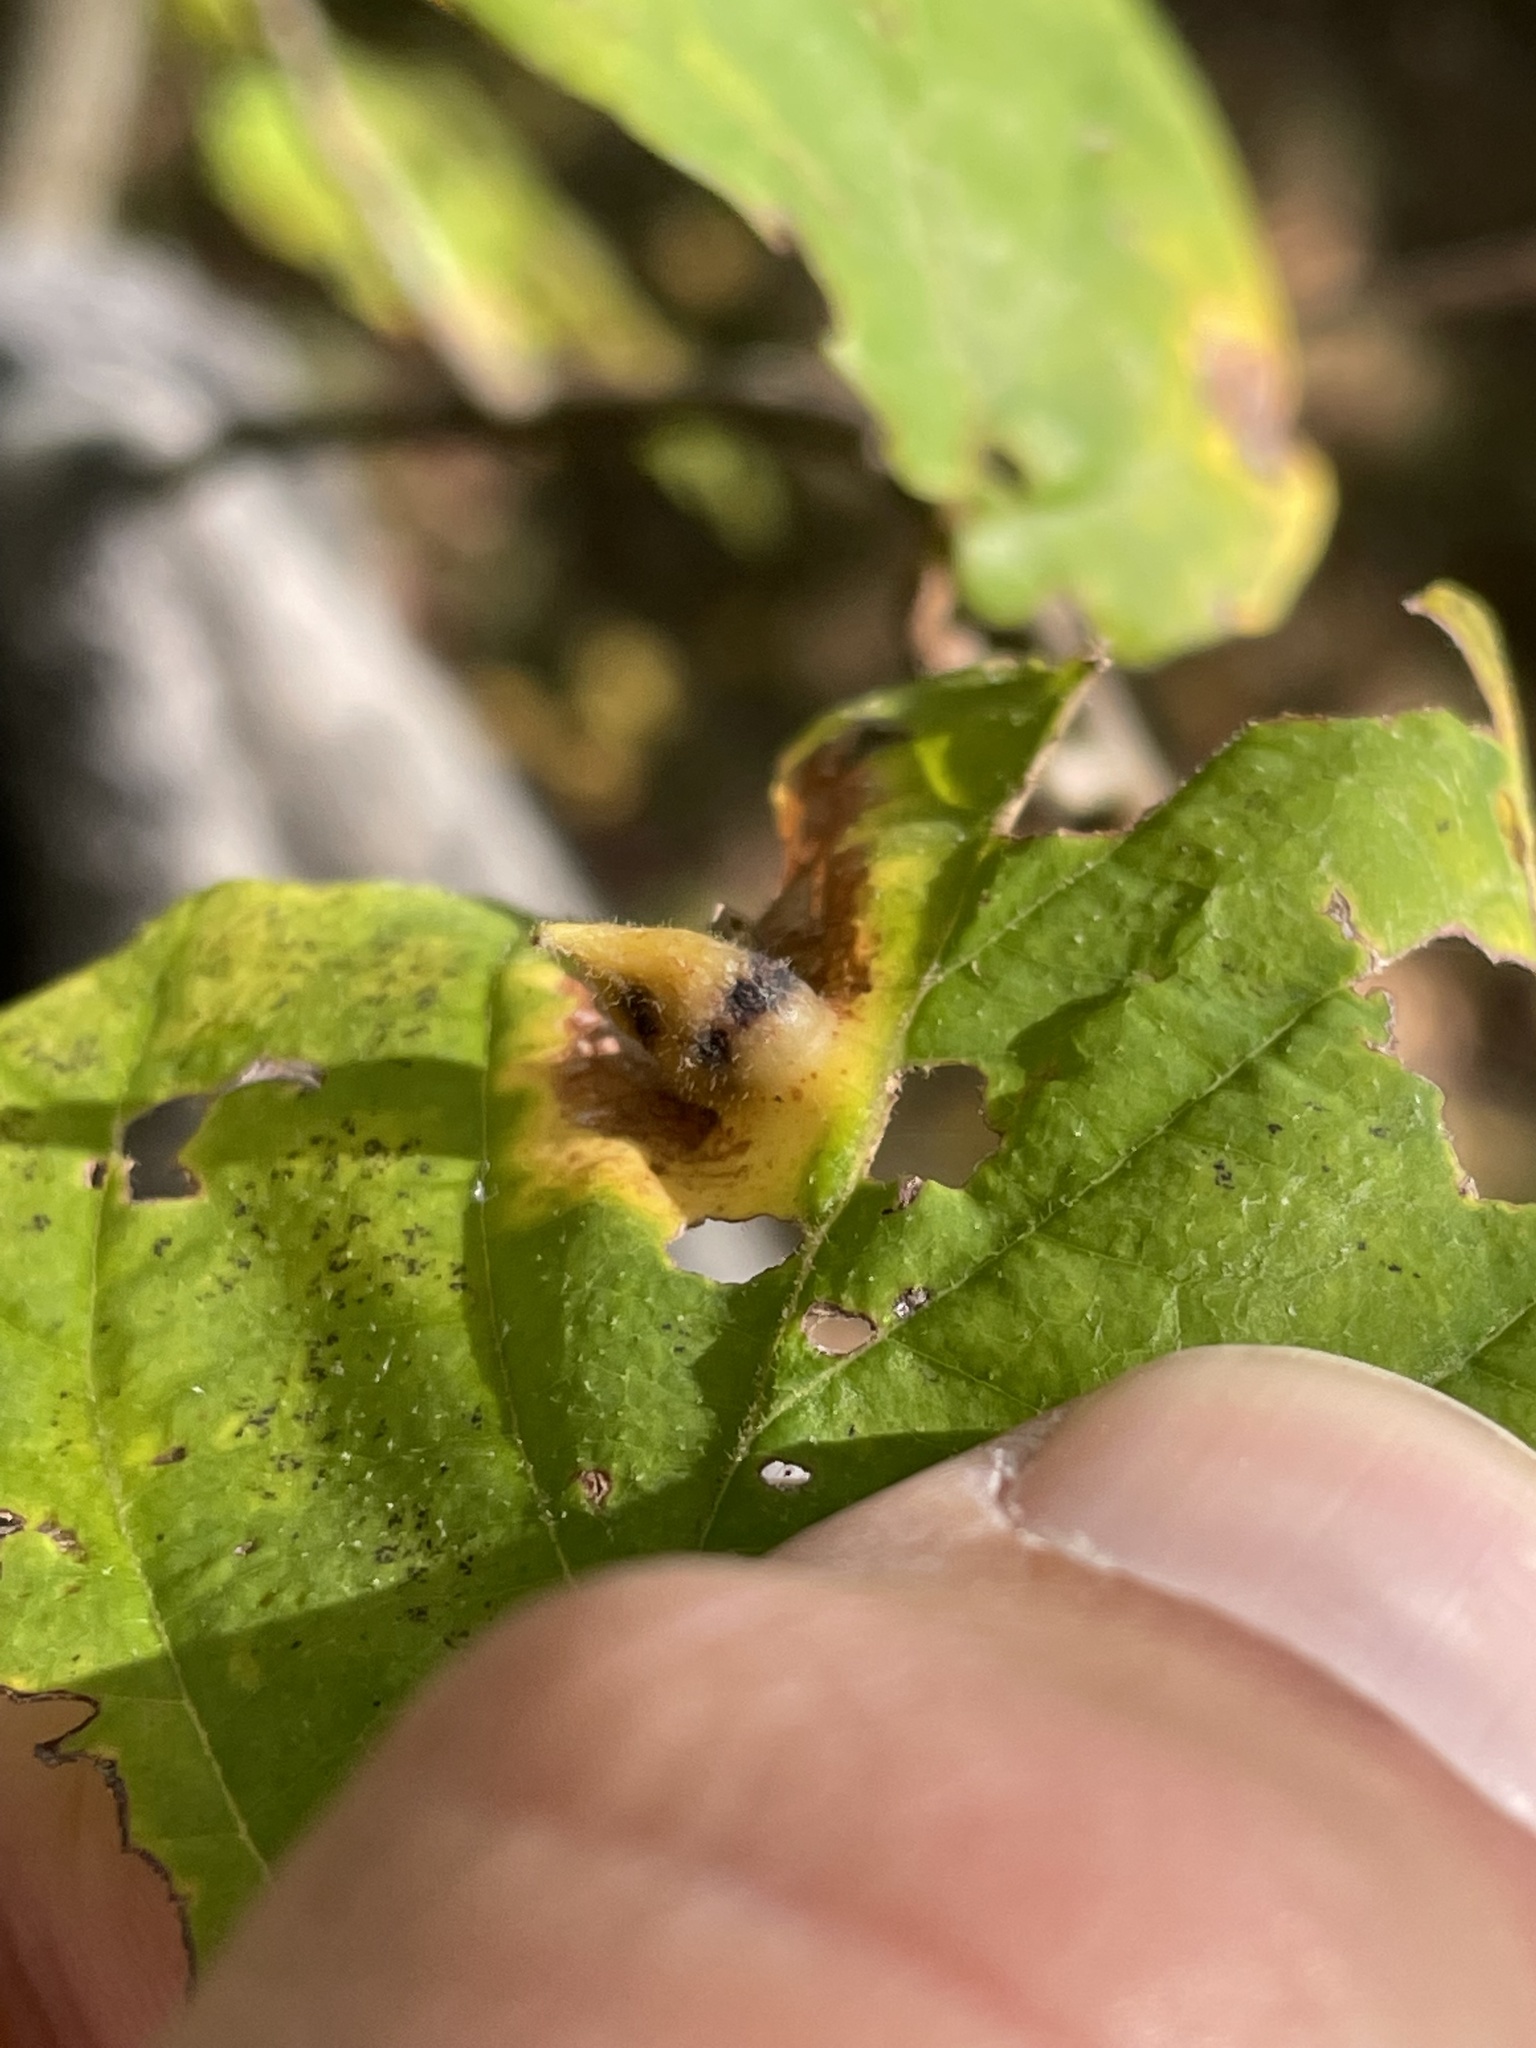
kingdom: Plantae
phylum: Tracheophyta
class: Magnoliopsida
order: Saxifragales
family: Hamamelidaceae
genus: Hamamelis
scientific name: Hamamelis virginiana
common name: Witch-hazel
